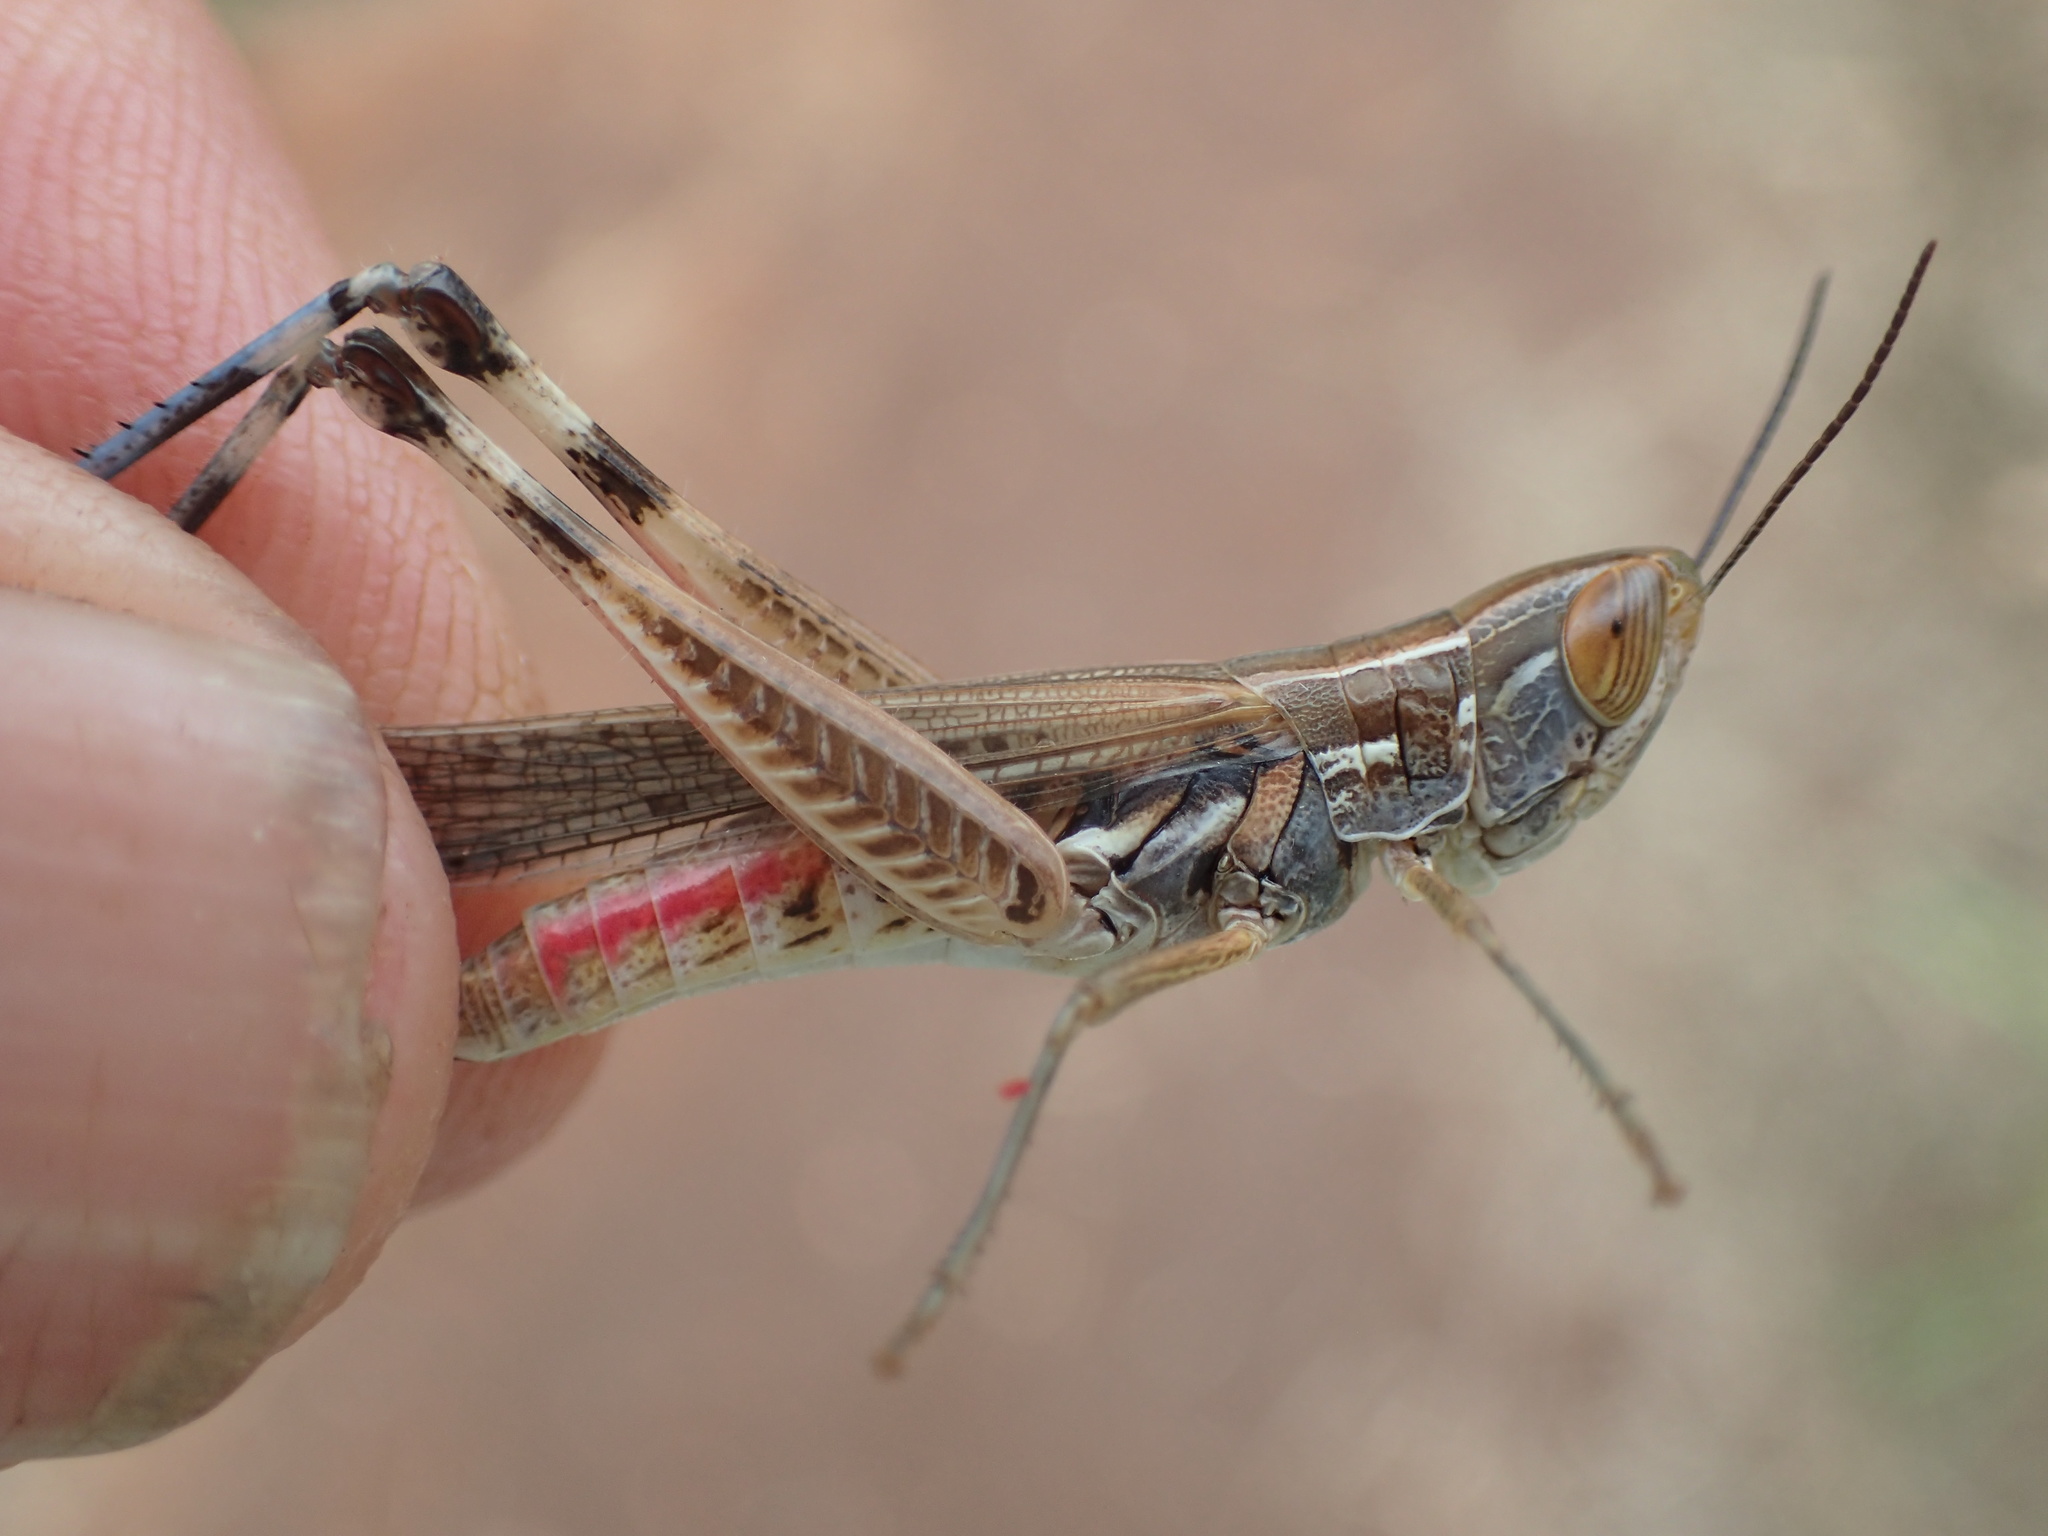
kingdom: Animalia
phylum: Arthropoda
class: Insecta
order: Orthoptera
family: Acrididae
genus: Macrotona
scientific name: Macrotona
